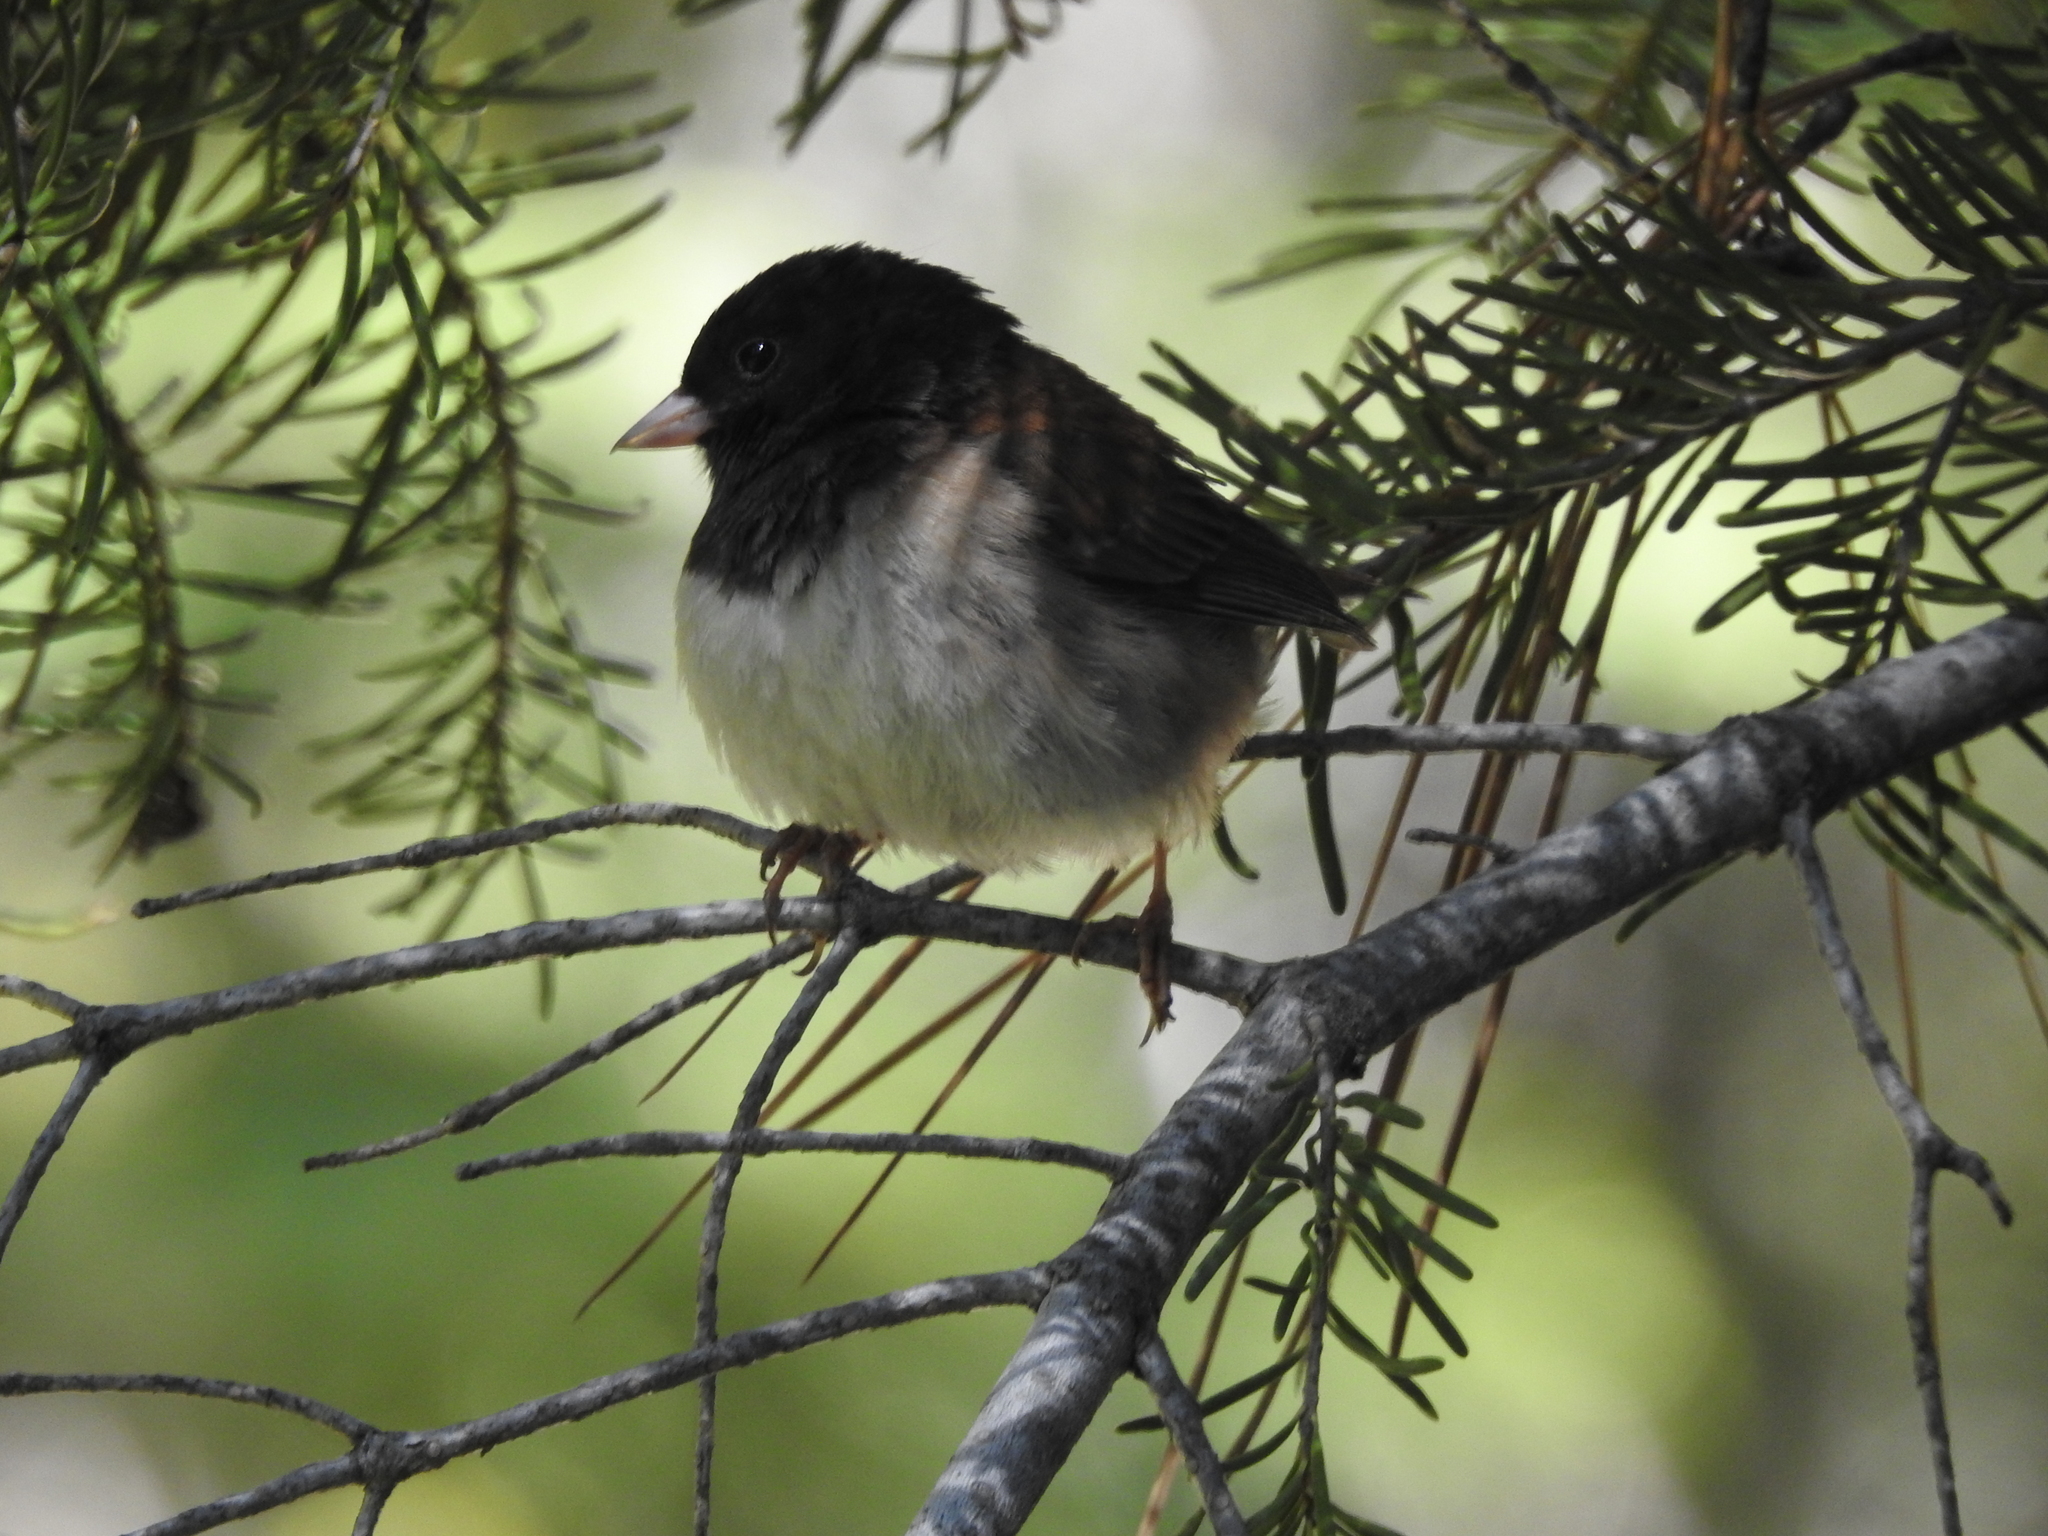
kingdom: Animalia
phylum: Chordata
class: Aves
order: Passeriformes
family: Passerellidae
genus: Junco
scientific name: Junco hyemalis
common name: Dark-eyed junco
